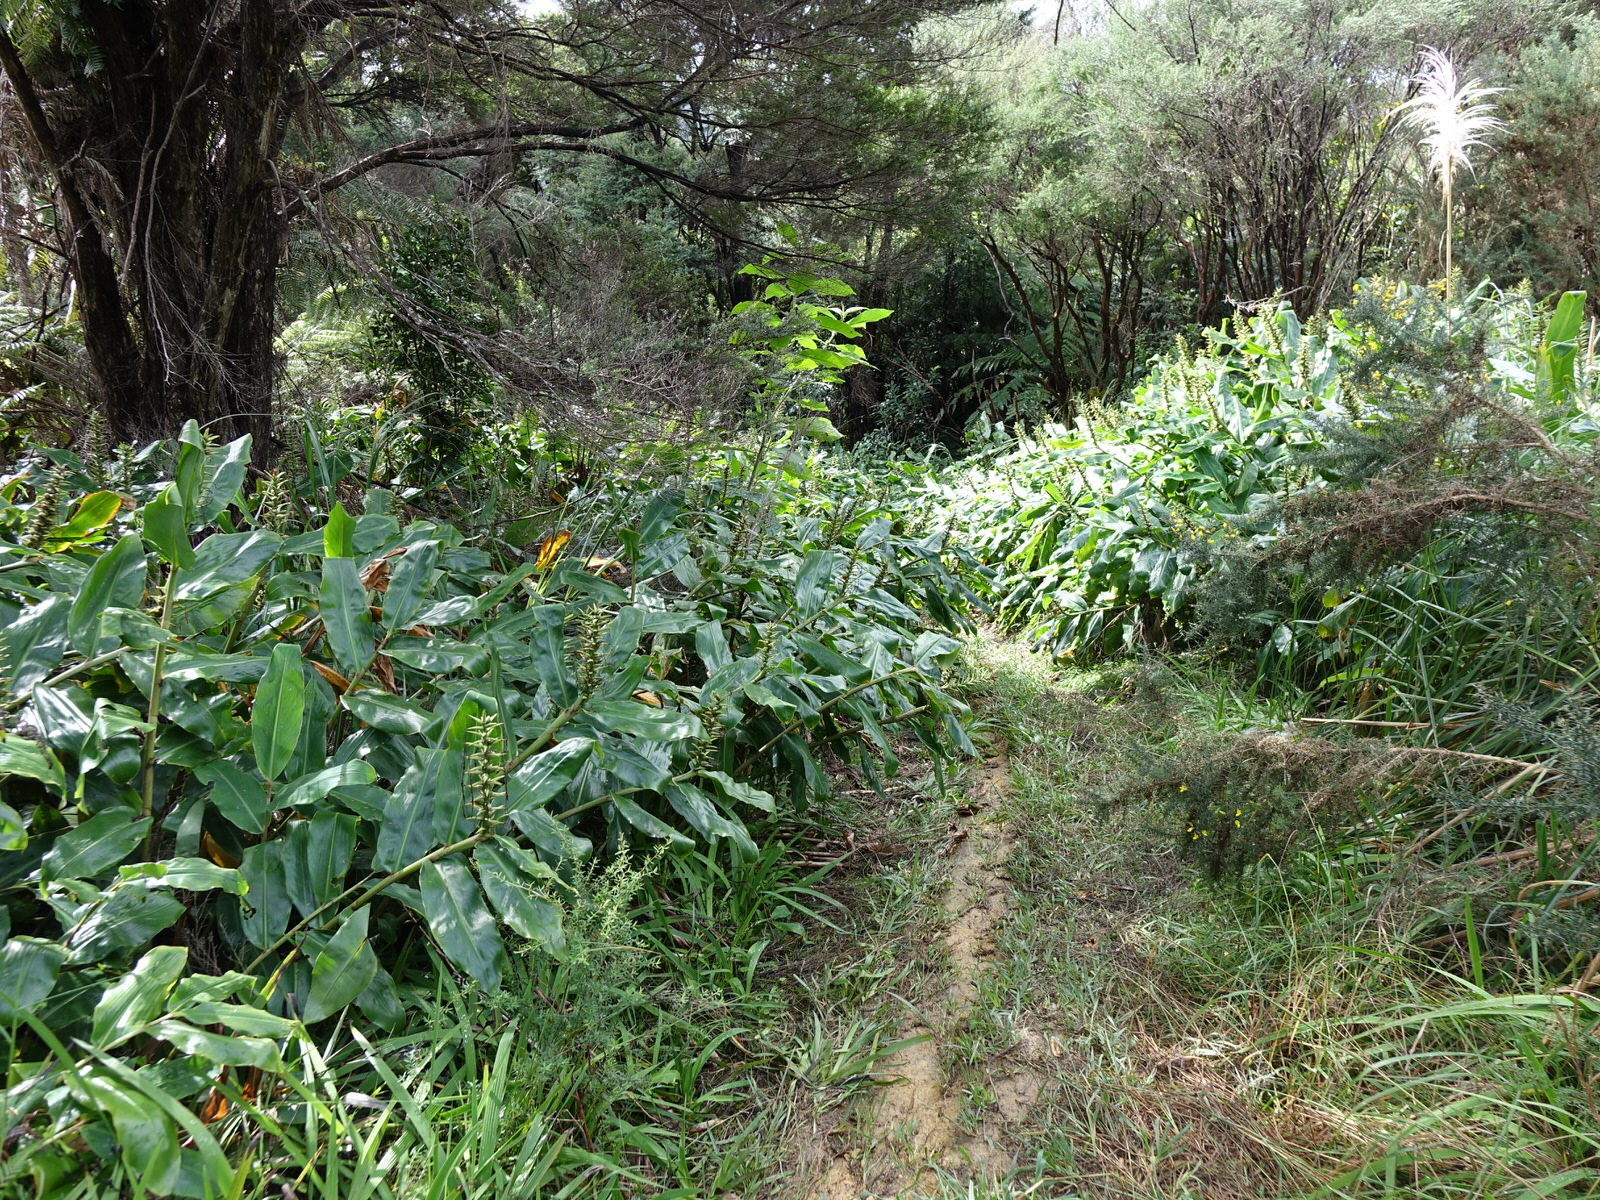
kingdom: Plantae
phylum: Tracheophyta
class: Liliopsida
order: Zingiberales
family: Zingiberaceae
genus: Hedychium
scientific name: Hedychium gardnerianum
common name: Himalayan ginger
